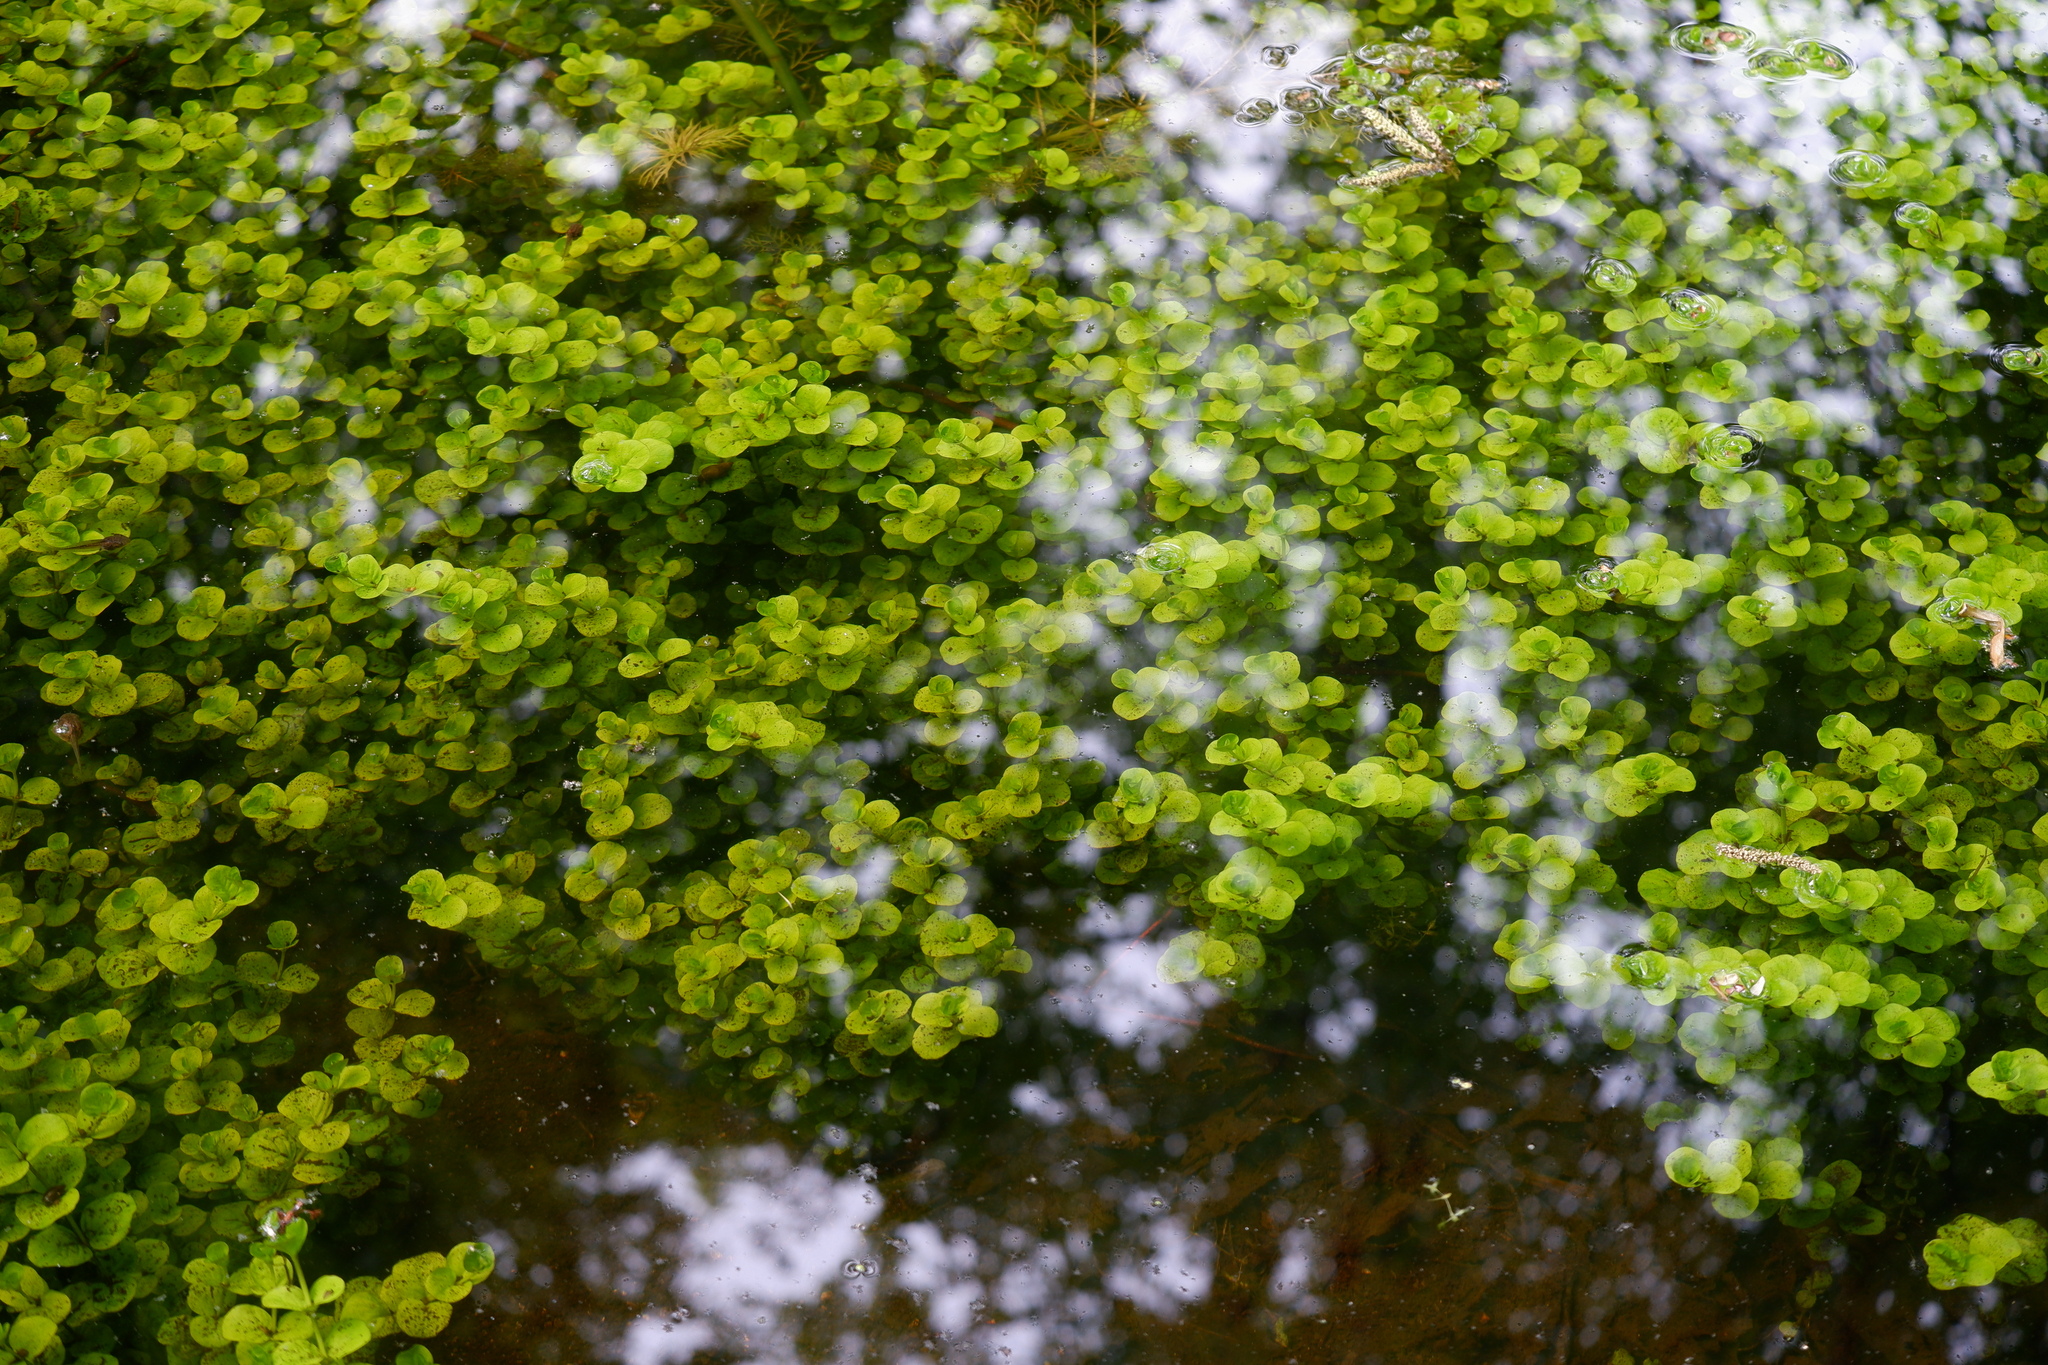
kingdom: Plantae
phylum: Tracheophyta
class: Magnoliopsida
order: Ericales
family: Primulaceae
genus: Lysimachia
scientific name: Lysimachia nummularia
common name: Moneywort
